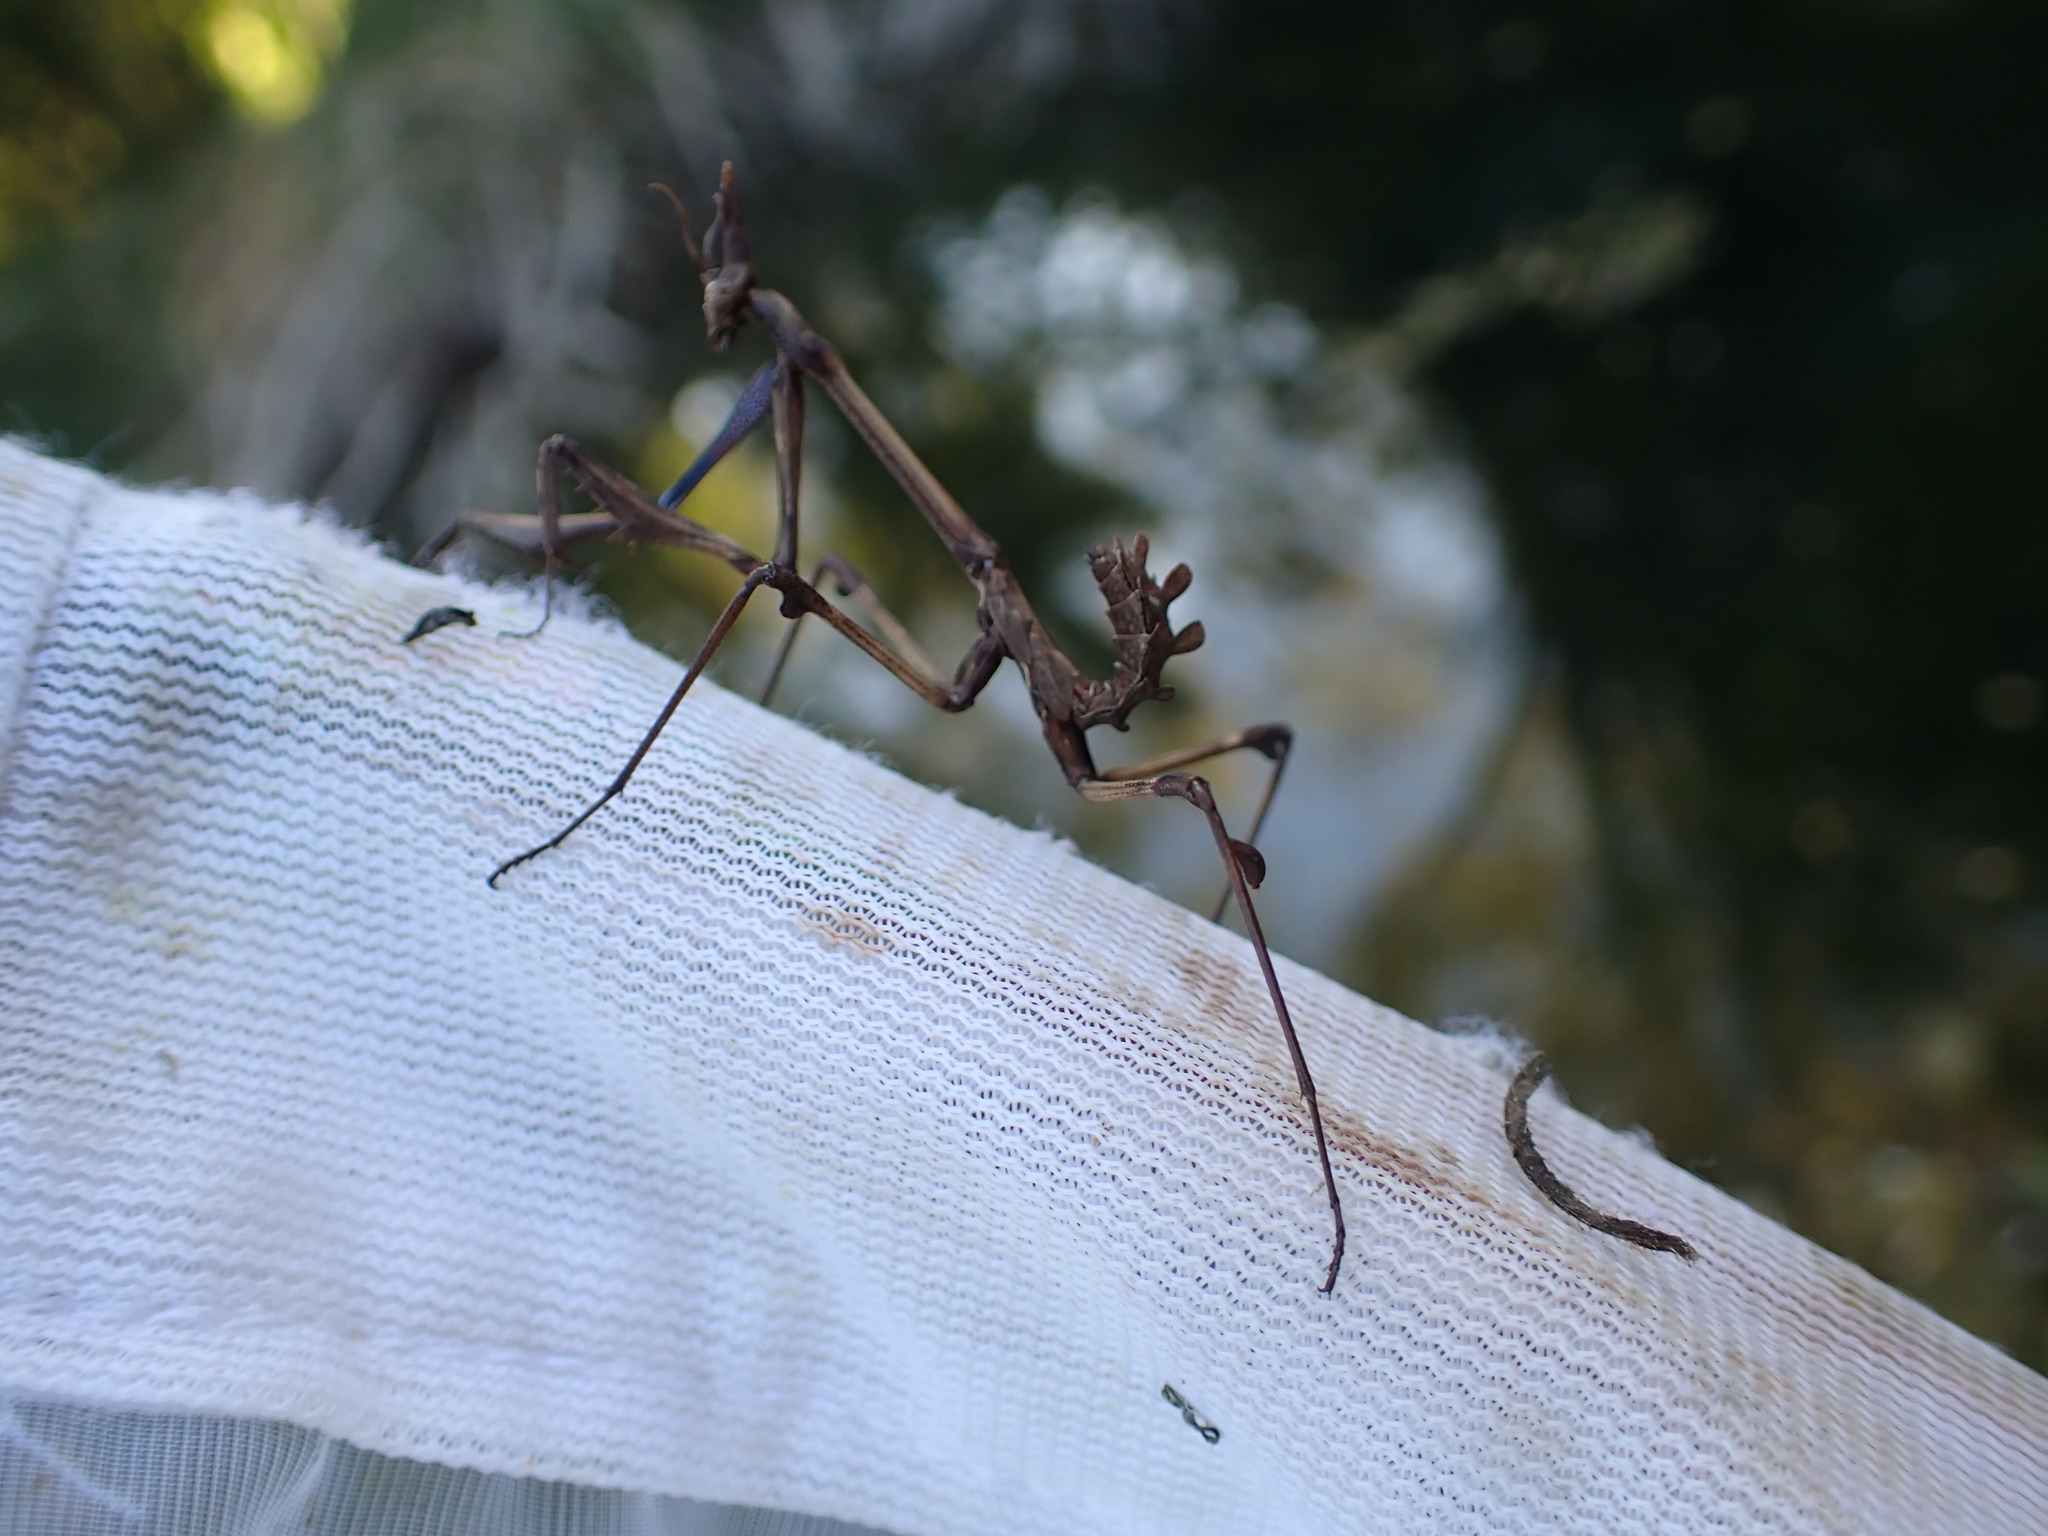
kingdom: Animalia
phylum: Arthropoda
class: Insecta
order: Mantodea
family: Empusidae
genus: Empusa
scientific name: Empusa pennata
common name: Conehead mantis
